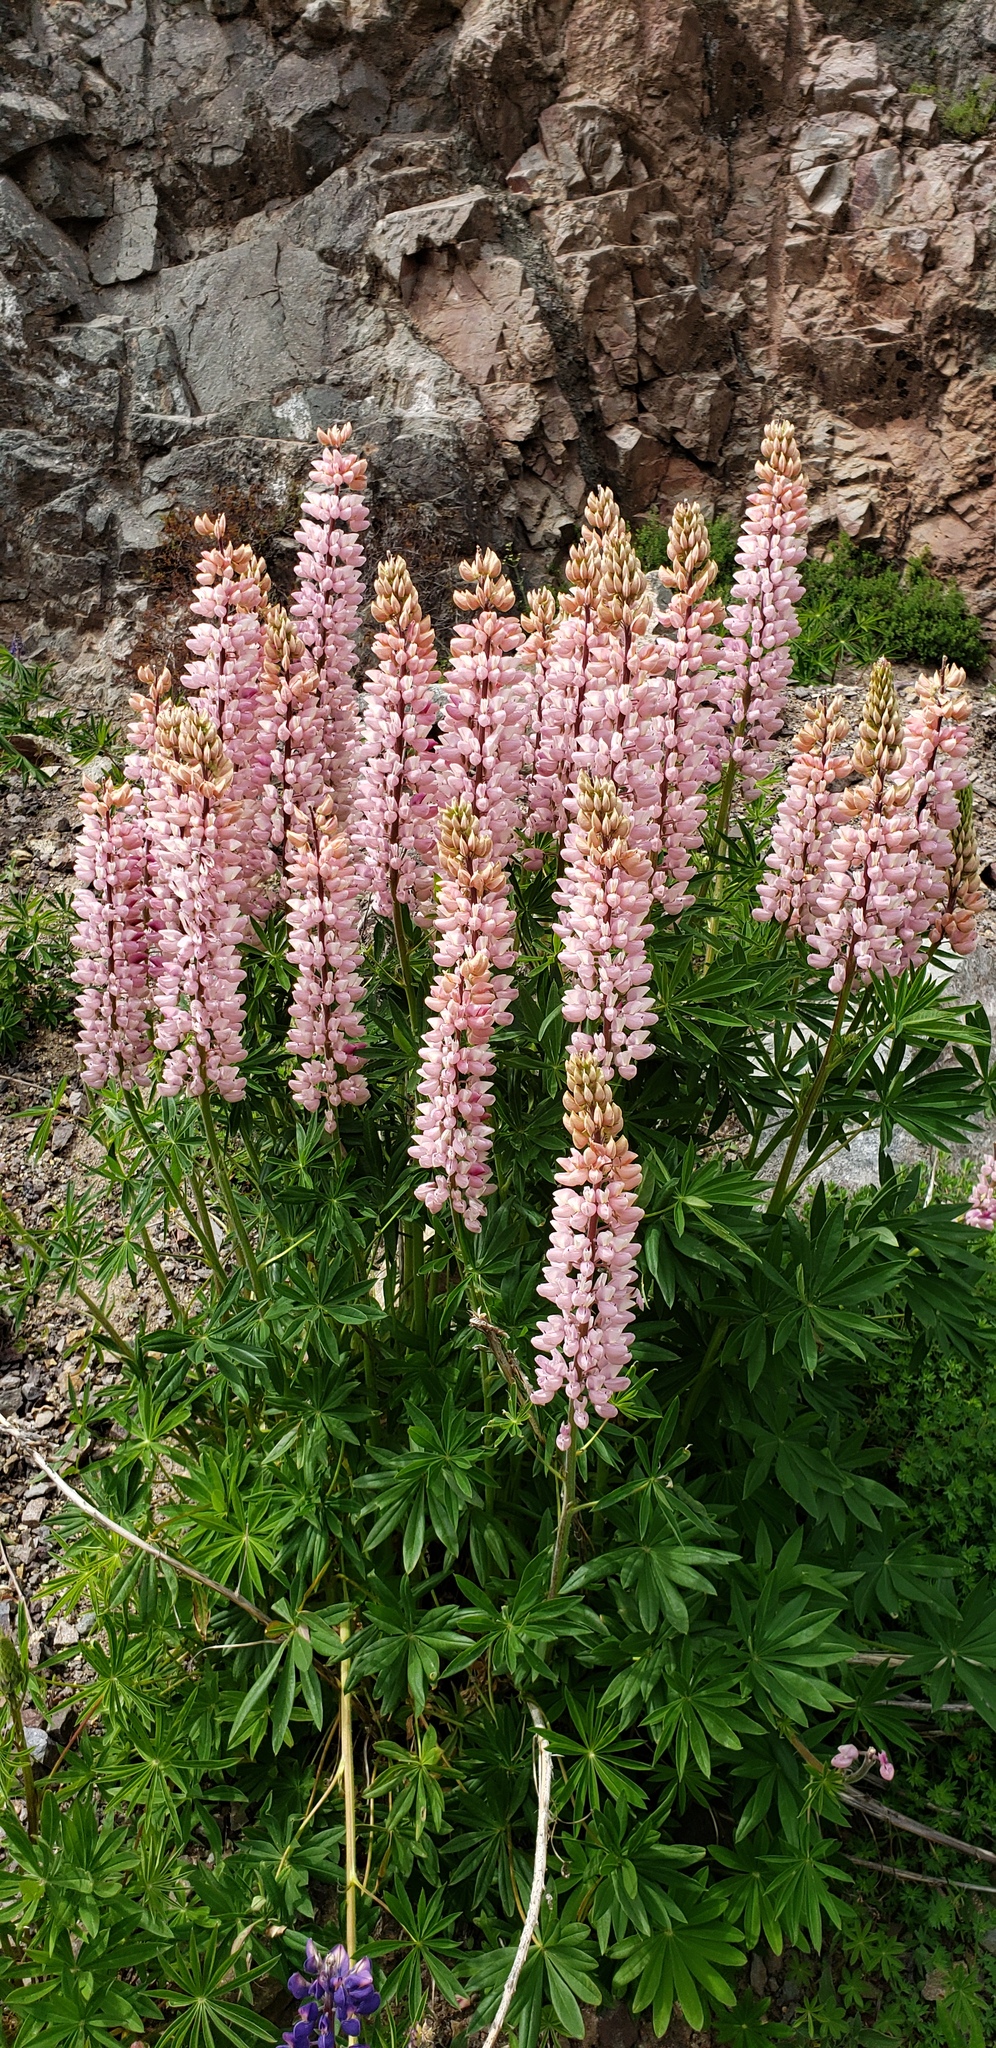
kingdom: Plantae
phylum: Tracheophyta
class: Magnoliopsida
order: Fabales
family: Fabaceae
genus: Lupinus
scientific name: Lupinus polyphyllus
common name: Garden lupin
